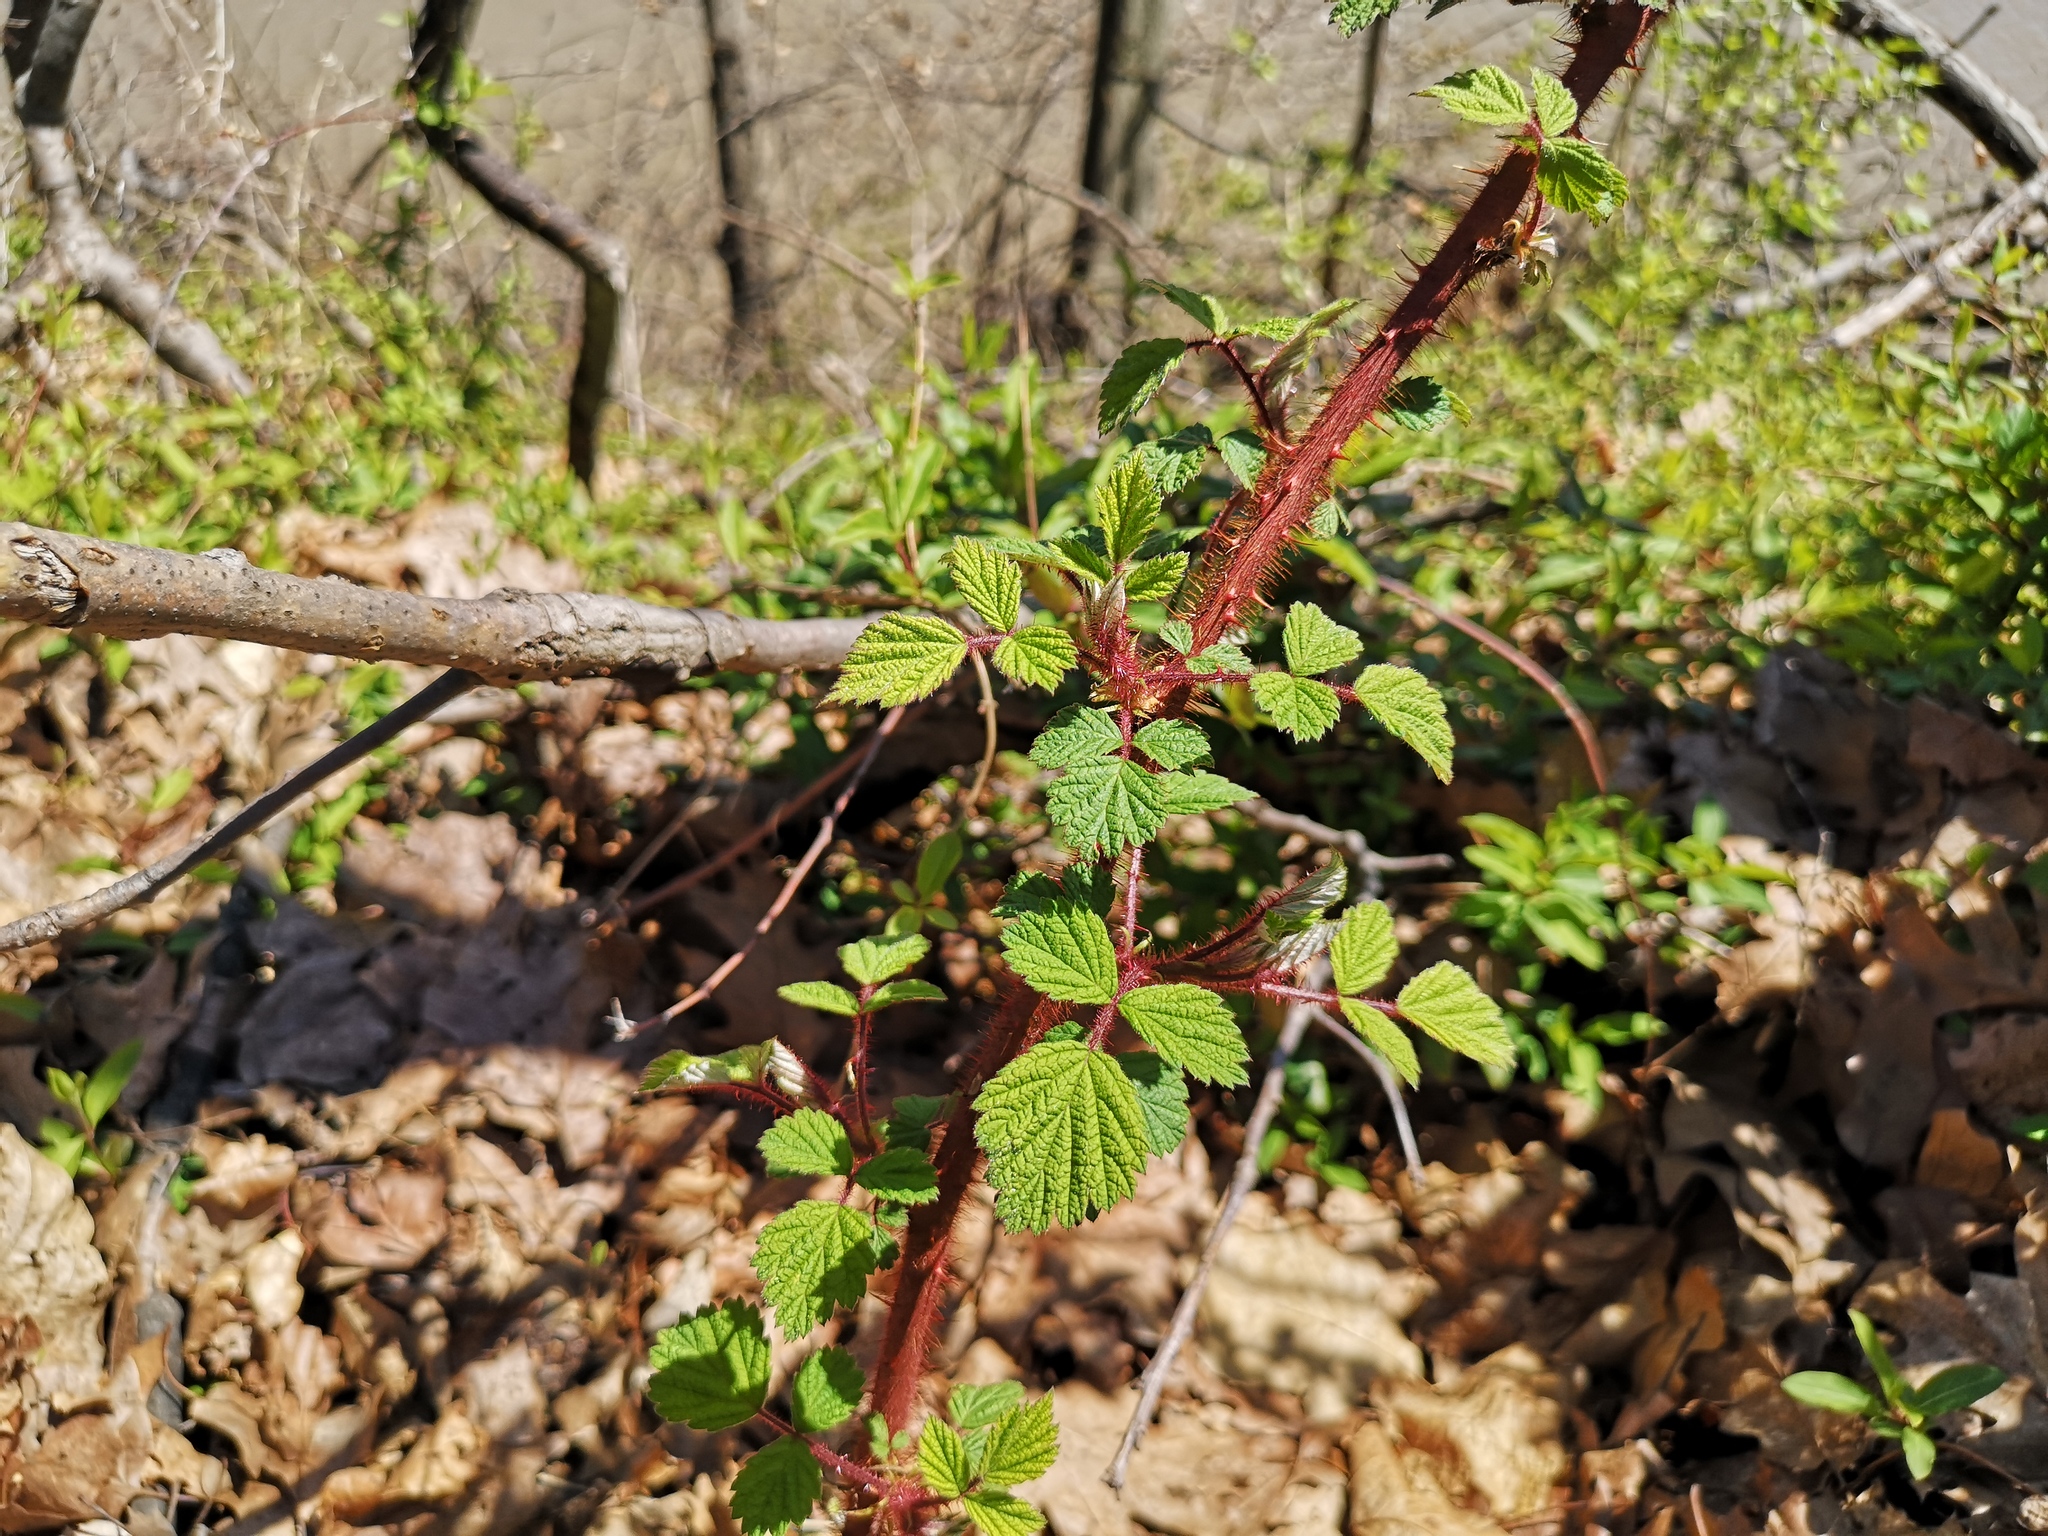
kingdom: Plantae
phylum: Tracheophyta
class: Magnoliopsida
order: Rosales
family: Rosaceae
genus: Rubus
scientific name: Rubus phoenicolasius
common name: Japanese wineberry
